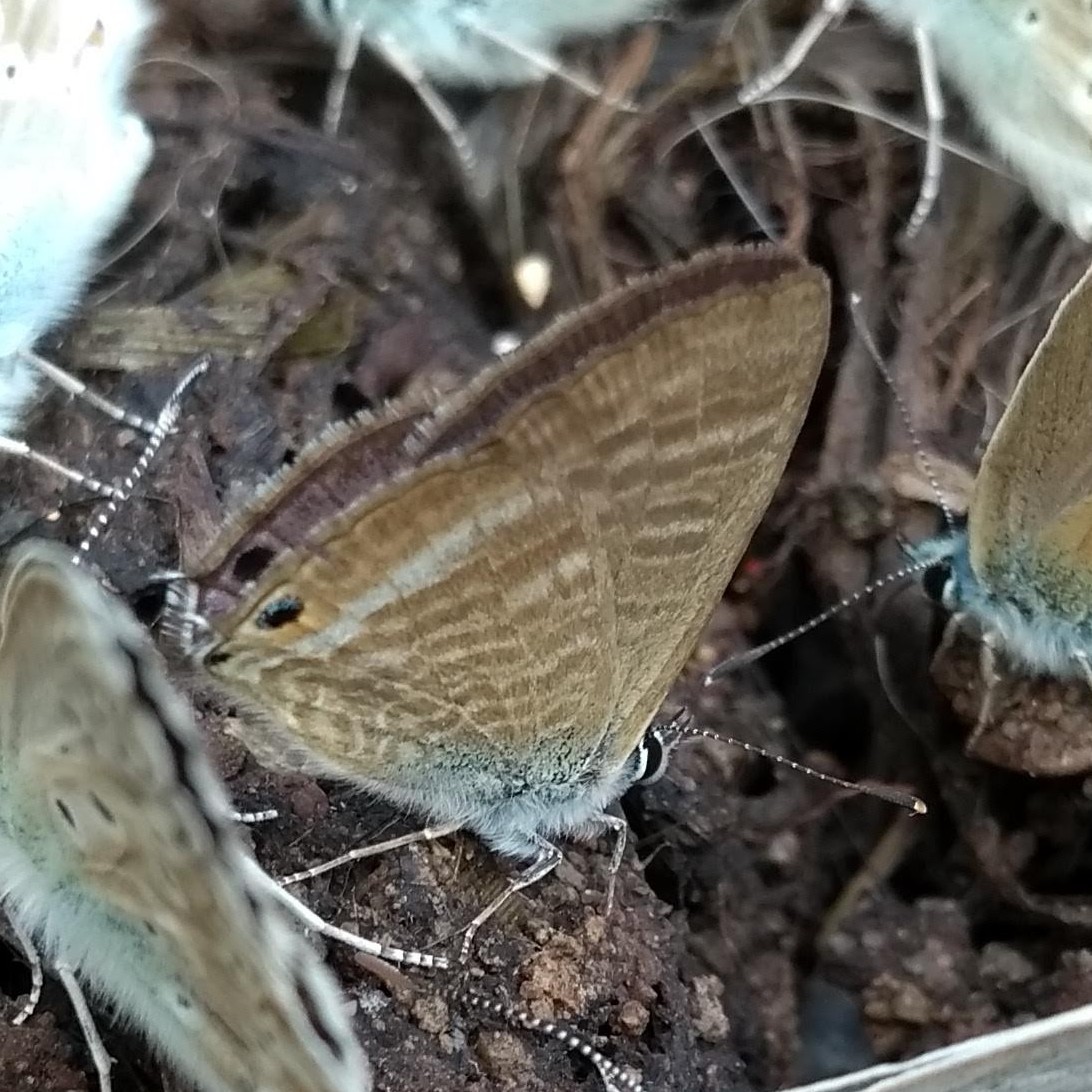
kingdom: Animalia
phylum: Arthropoda
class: Insecta
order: Lepidoptera
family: Lycaenidae
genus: Lampides
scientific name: Lampides boeticus
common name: Long-tailed blue
